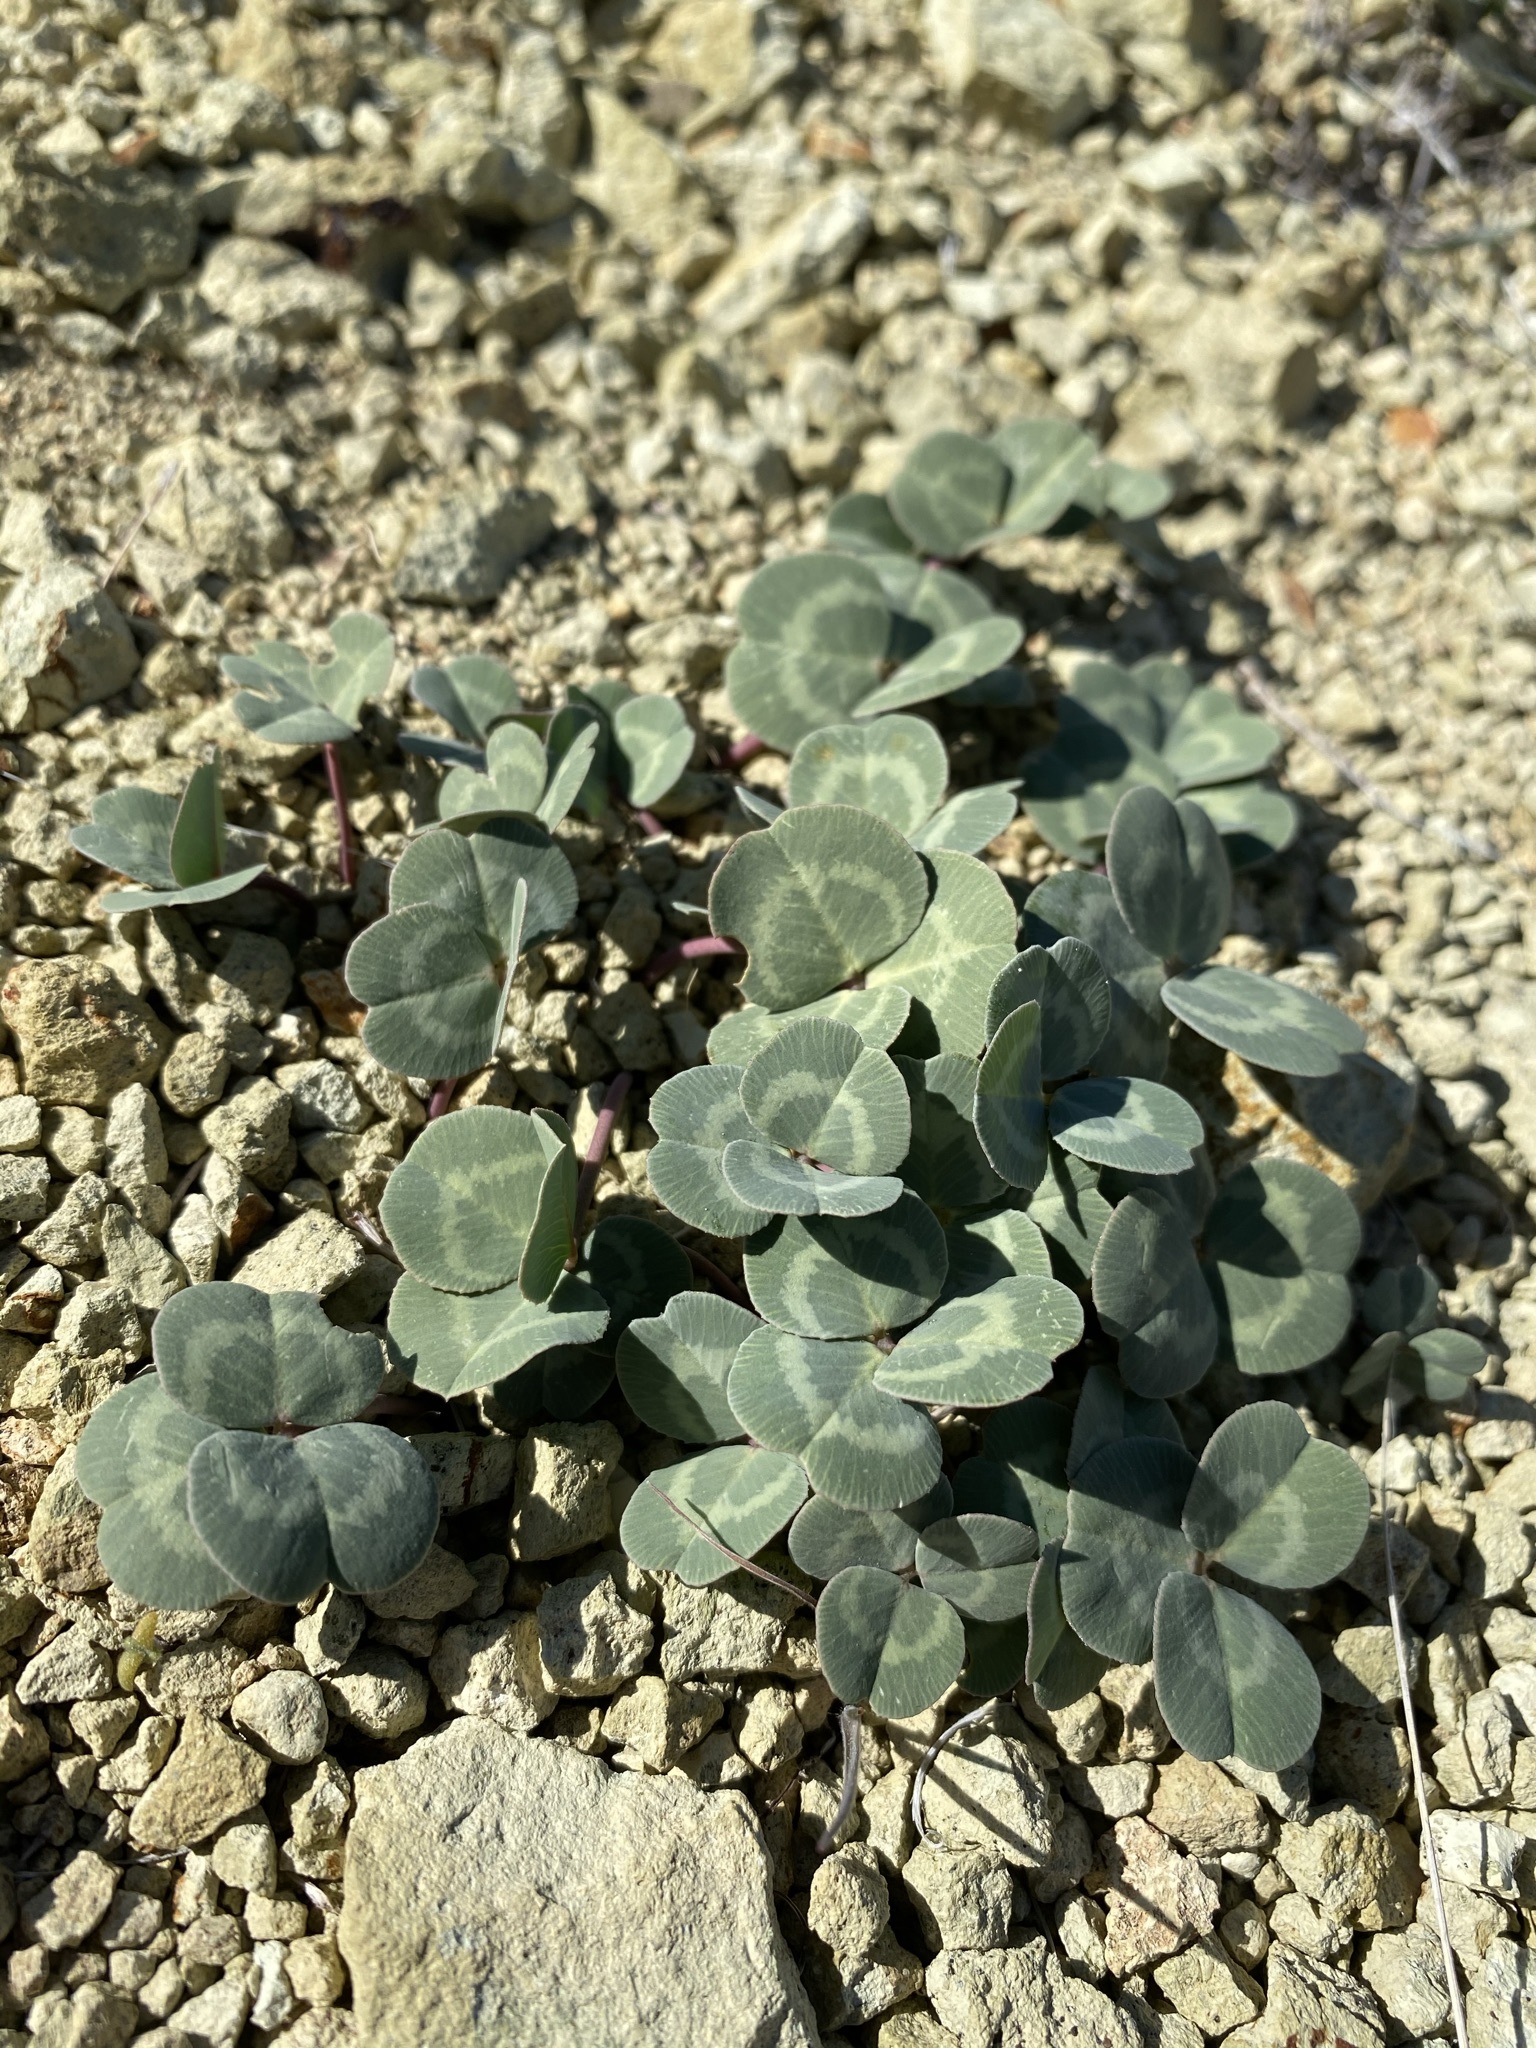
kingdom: Plantae
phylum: Tracheophyta
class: Magnoliopsida
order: Fabales
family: Fabaceae
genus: Trifolium
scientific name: Trifolium owyheense
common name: Owyhee clover
